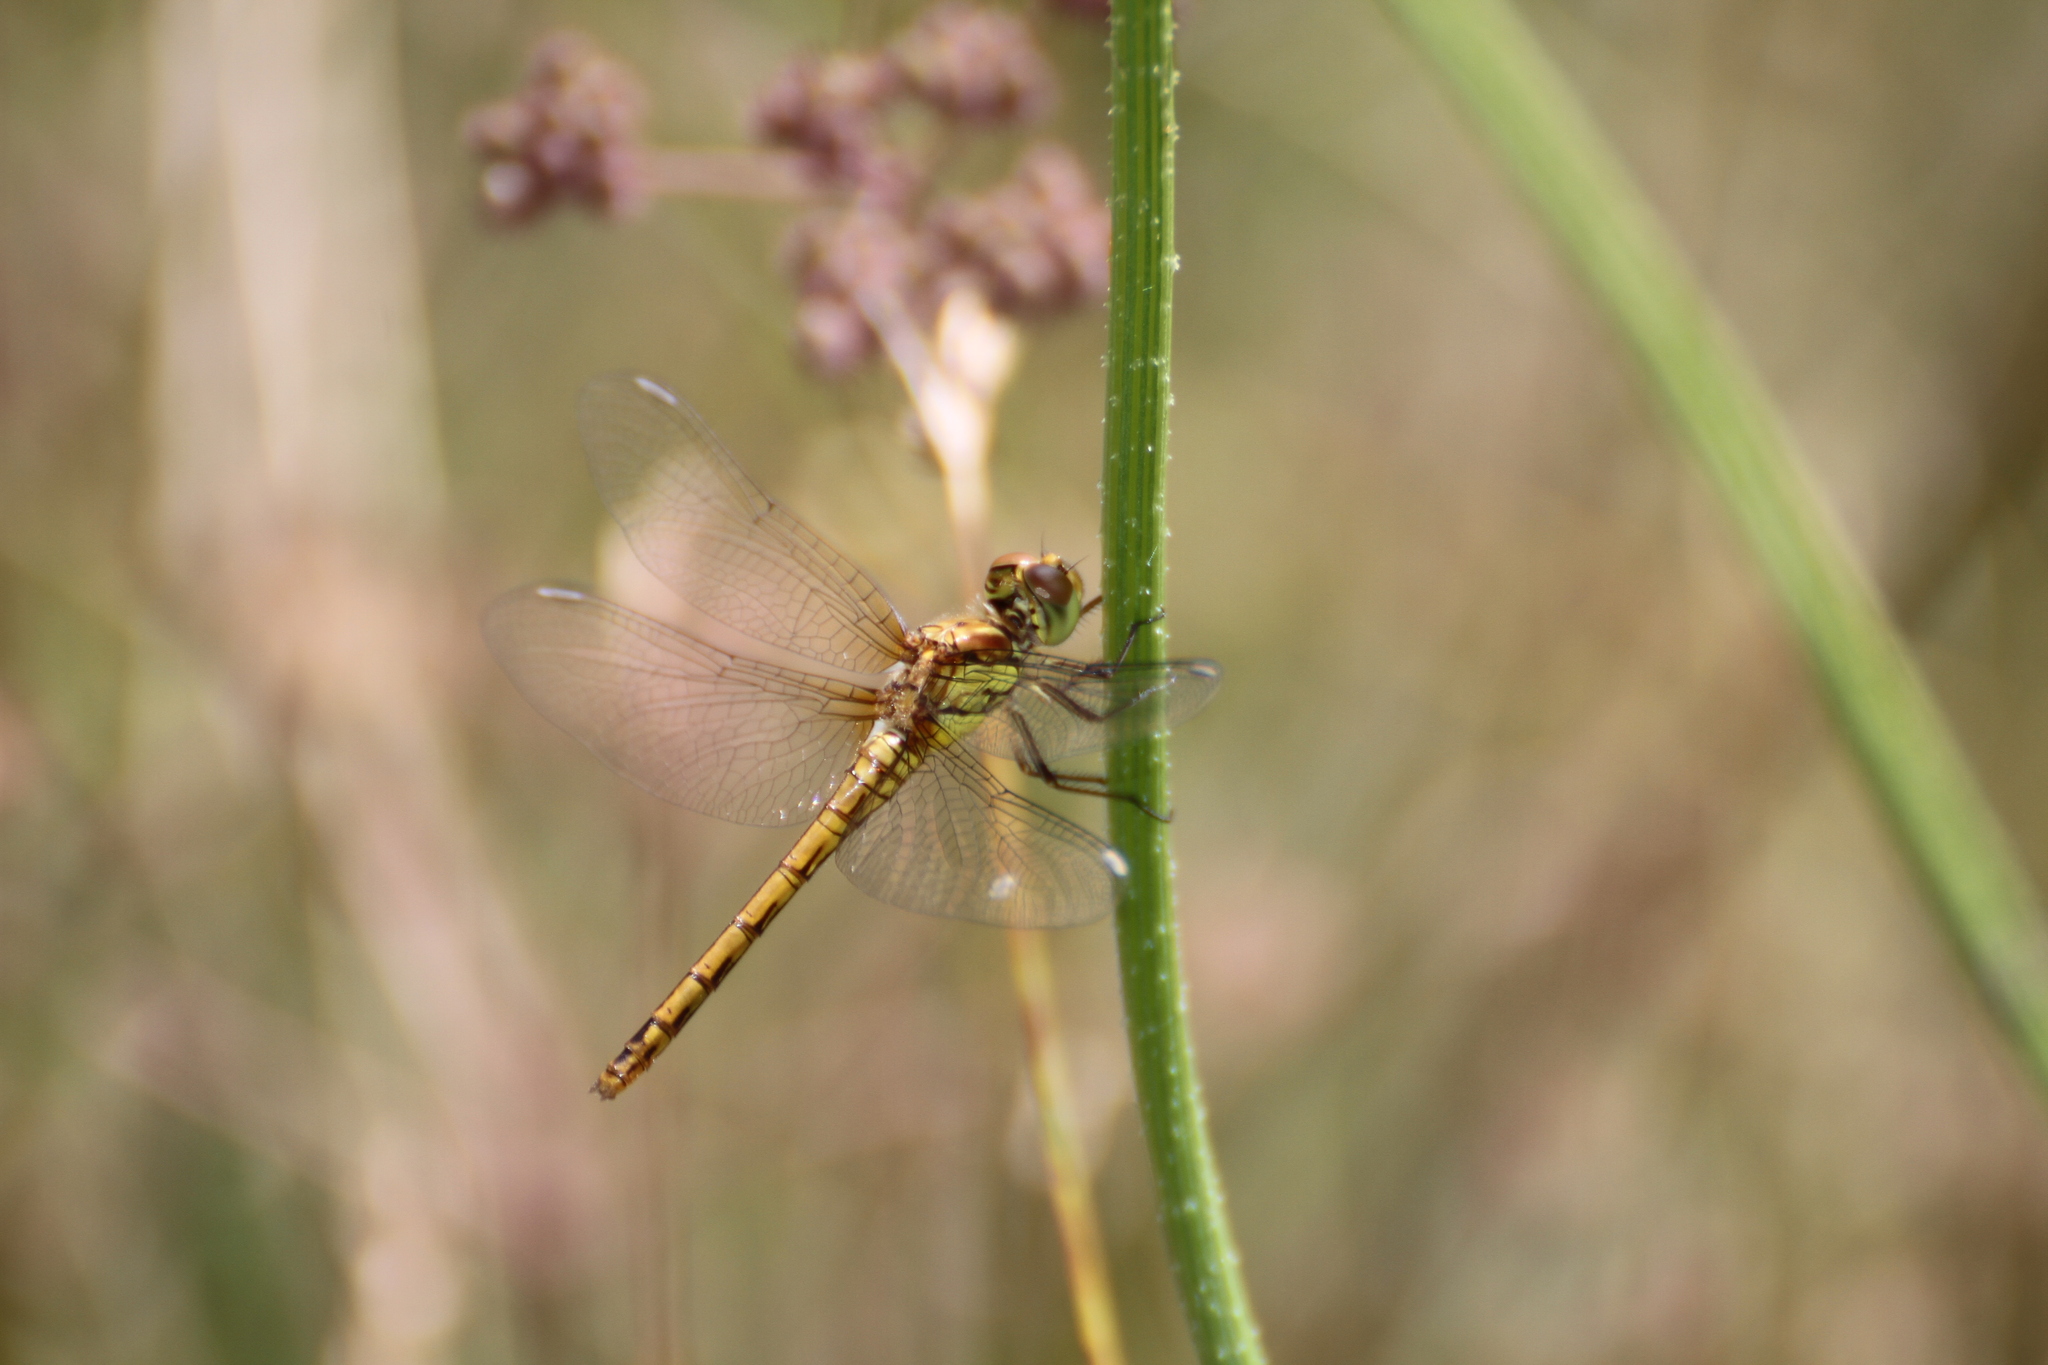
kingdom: Animalia
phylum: Arthropoda
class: Insecta
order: Odonata
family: Libellulidae
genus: Sympetrum
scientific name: Sympetrum striolatum
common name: Common darter
